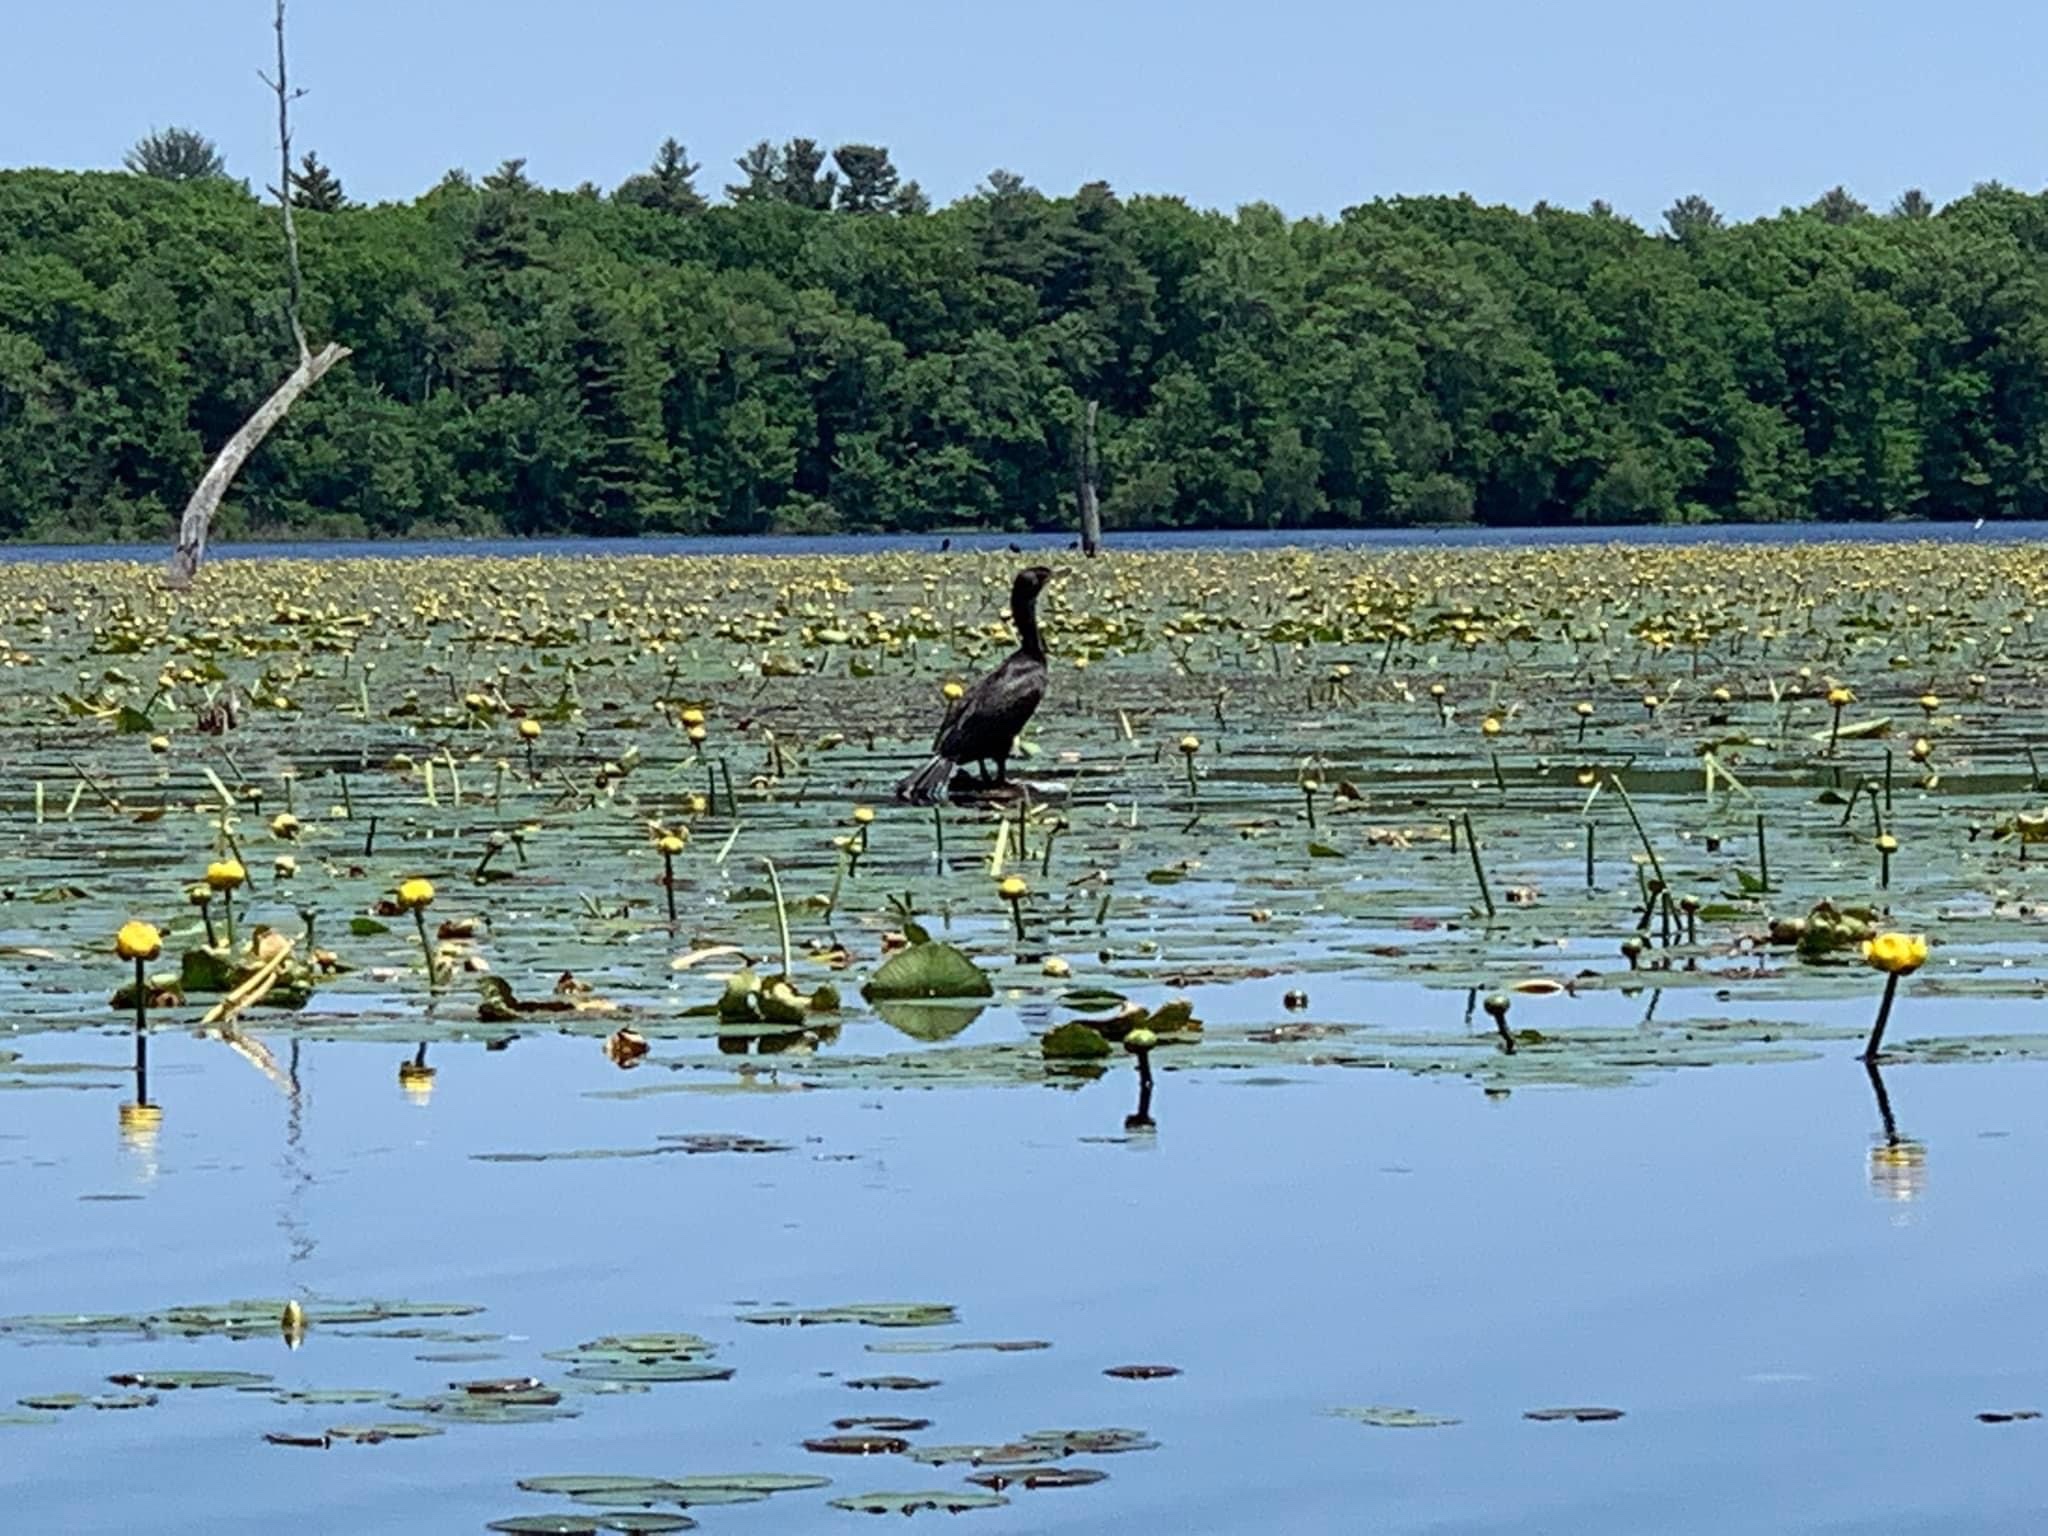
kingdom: Animalia
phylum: Chordata
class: Aves
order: Suliformes
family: Phalacrocoracidae
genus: Phalacrocorax
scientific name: Phalacrocorax auritus
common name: Double-crested cormorant
